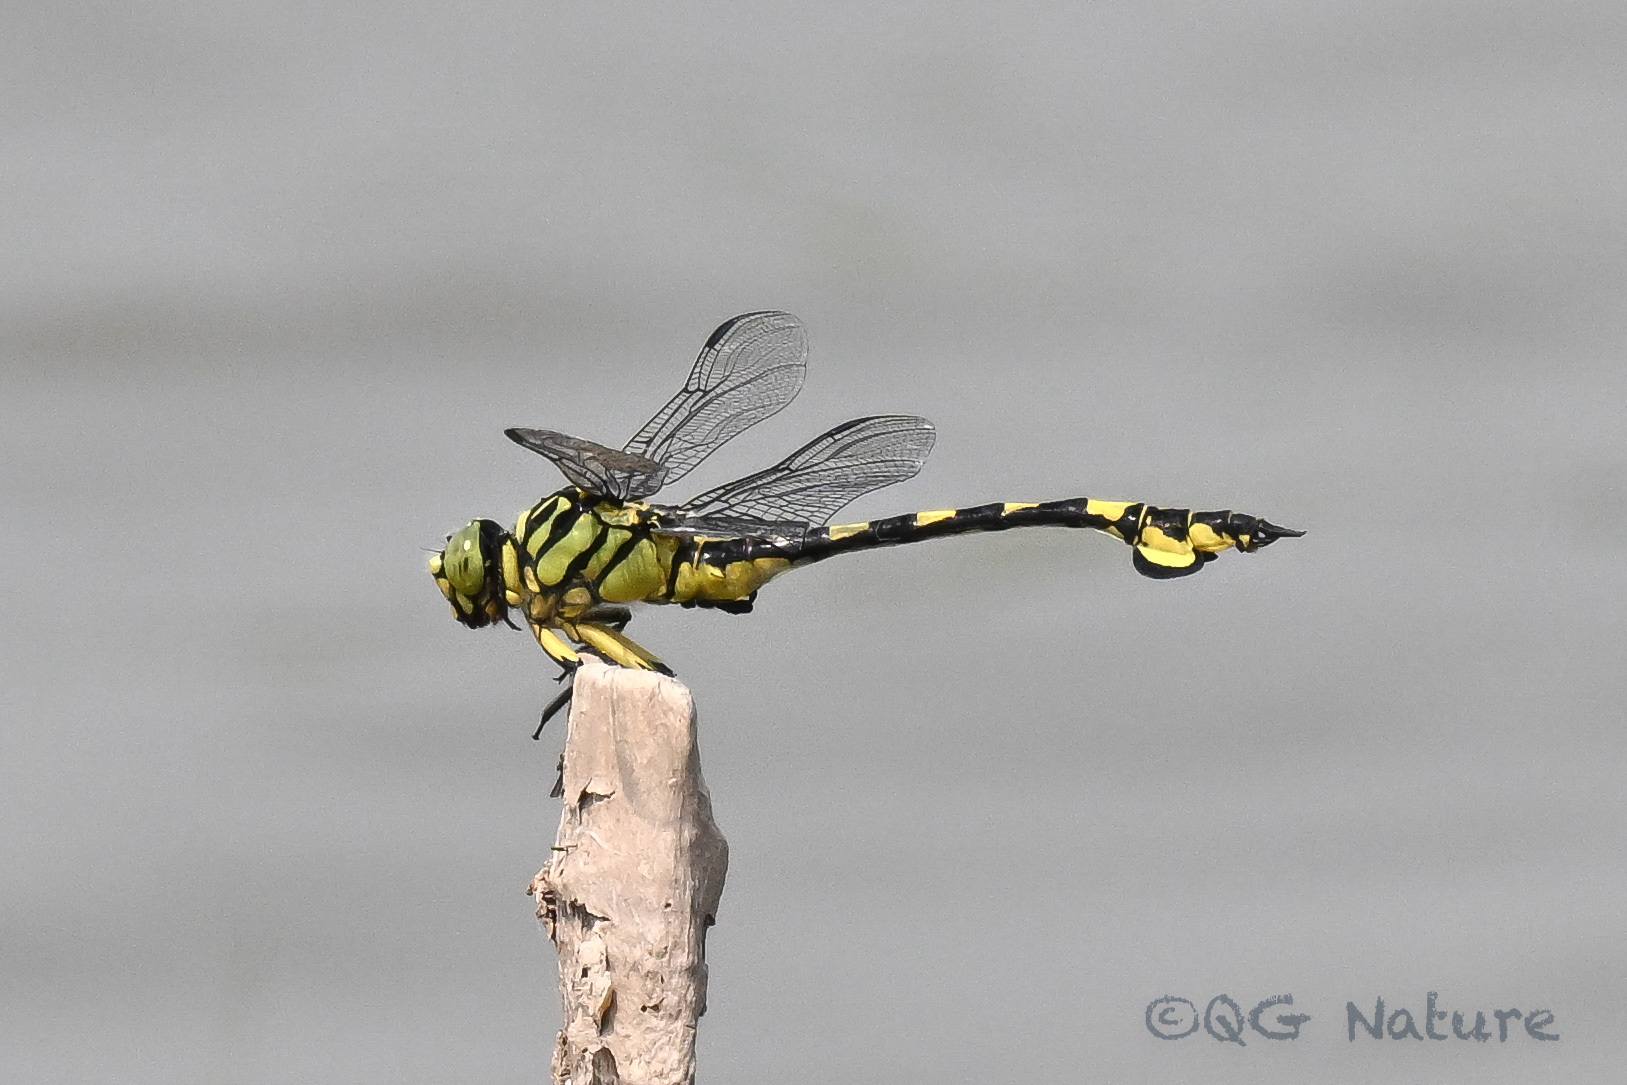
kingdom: Animalia
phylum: Arthropoda
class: Insecta
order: Odonata
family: Gomphidae
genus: Sinictinogomphus
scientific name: Sinictinogomphus clavatus
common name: Golden flangetail
